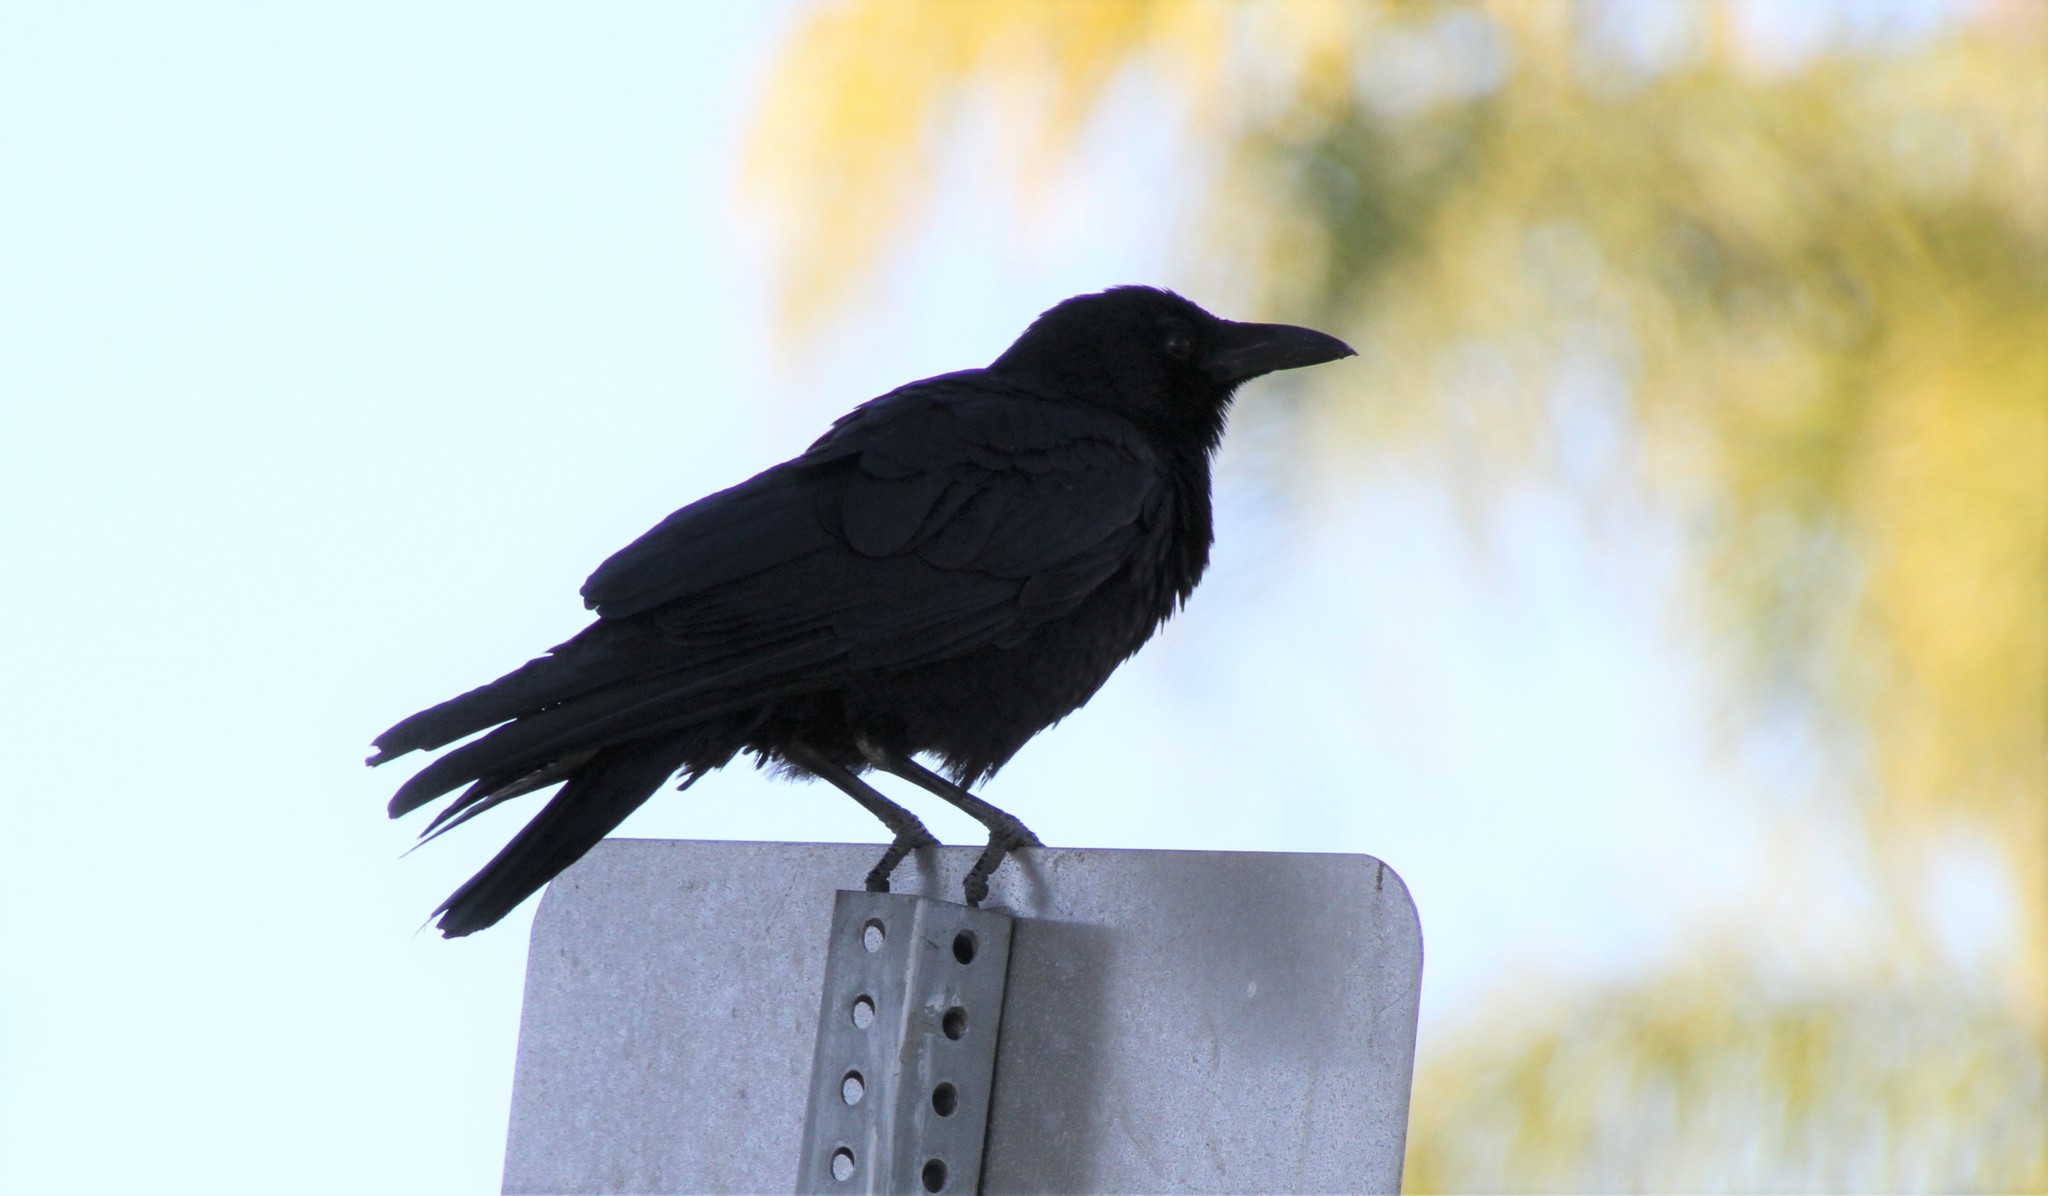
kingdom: Animalia
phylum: Chordata
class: Aves
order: Passeriformes
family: Corvidae
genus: Corvus
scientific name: Corvus brachyrhynchos
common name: American crow
